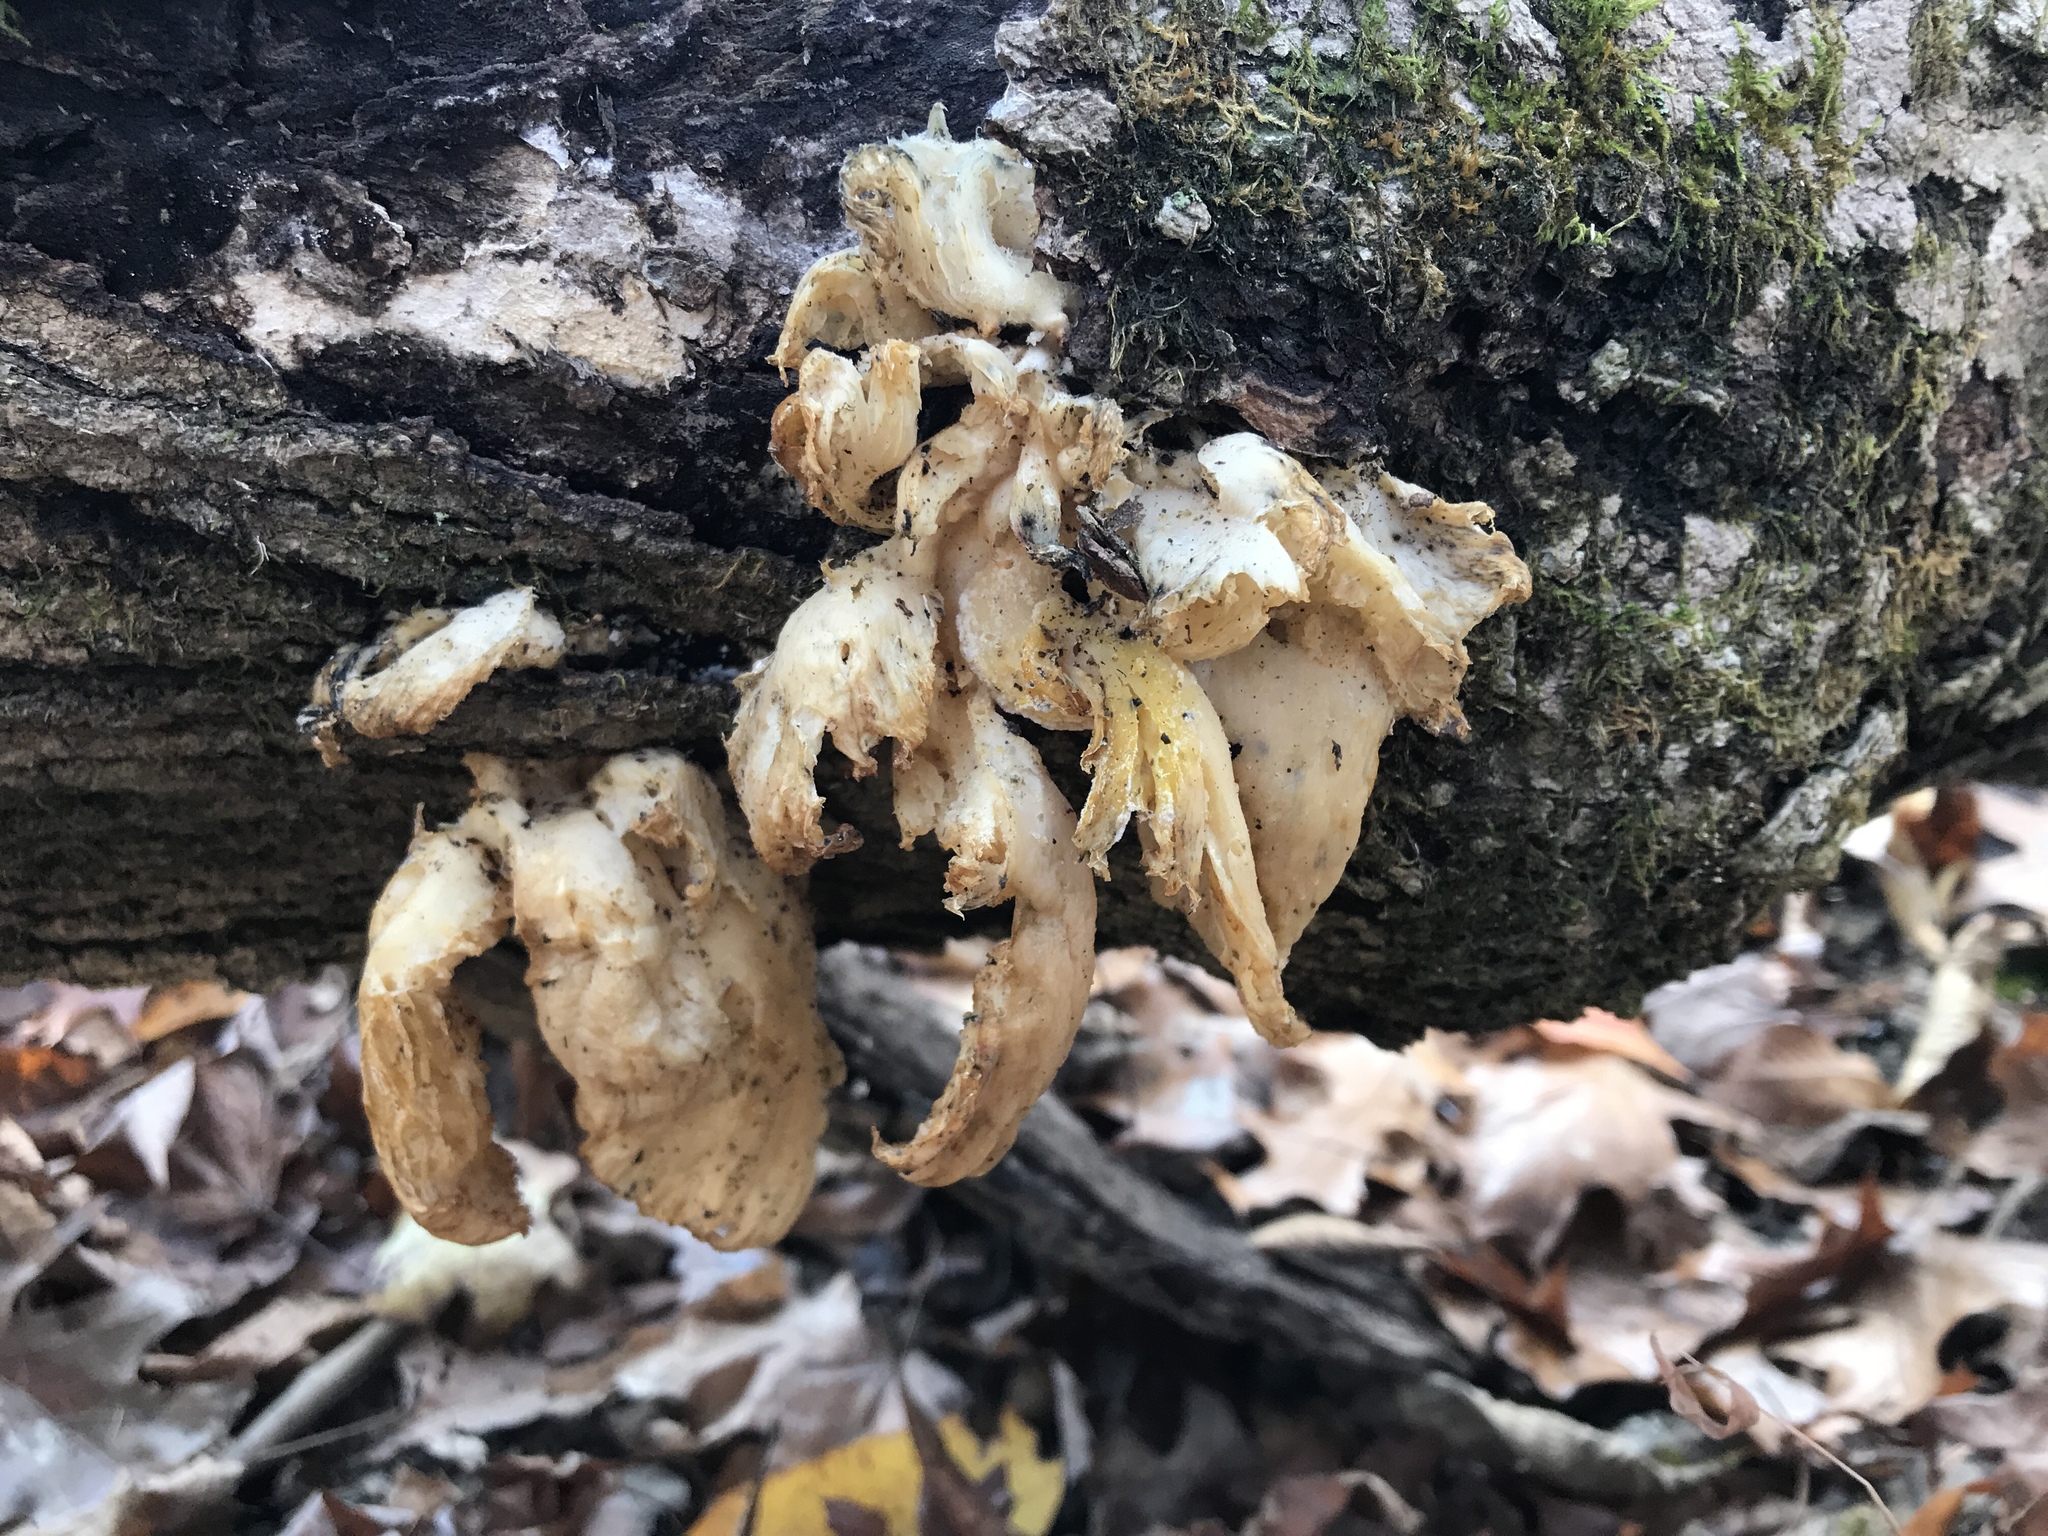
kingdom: Fungi
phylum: Basidiomycota
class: Agaricomycetes
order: Agaricales
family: Pleurotaceae
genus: Pleurotus
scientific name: Pleurotus pulmonarius
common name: Pale oyster
